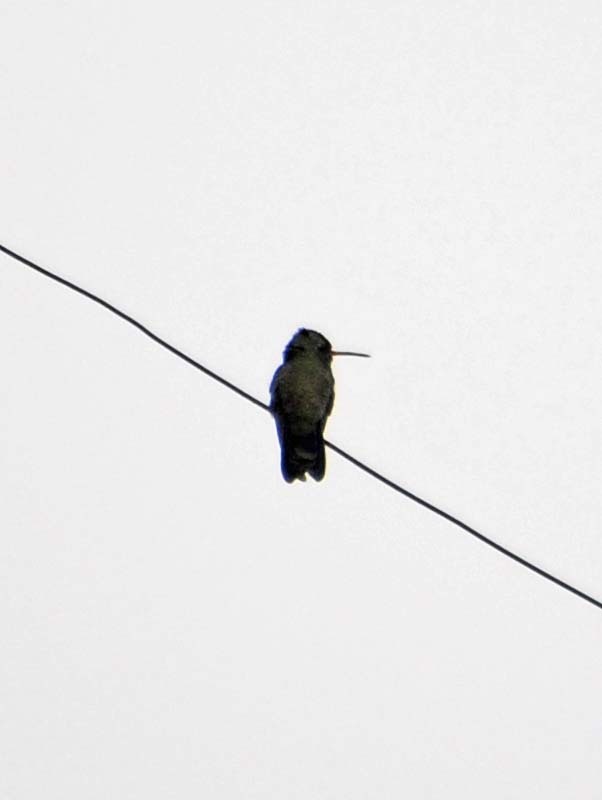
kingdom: Animalia
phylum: Chordata
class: Aves
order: Apodiformes
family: Trochilidae
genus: Cynanthus
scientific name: Cynanthus latirostris
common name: Broad-billed hummingbird
